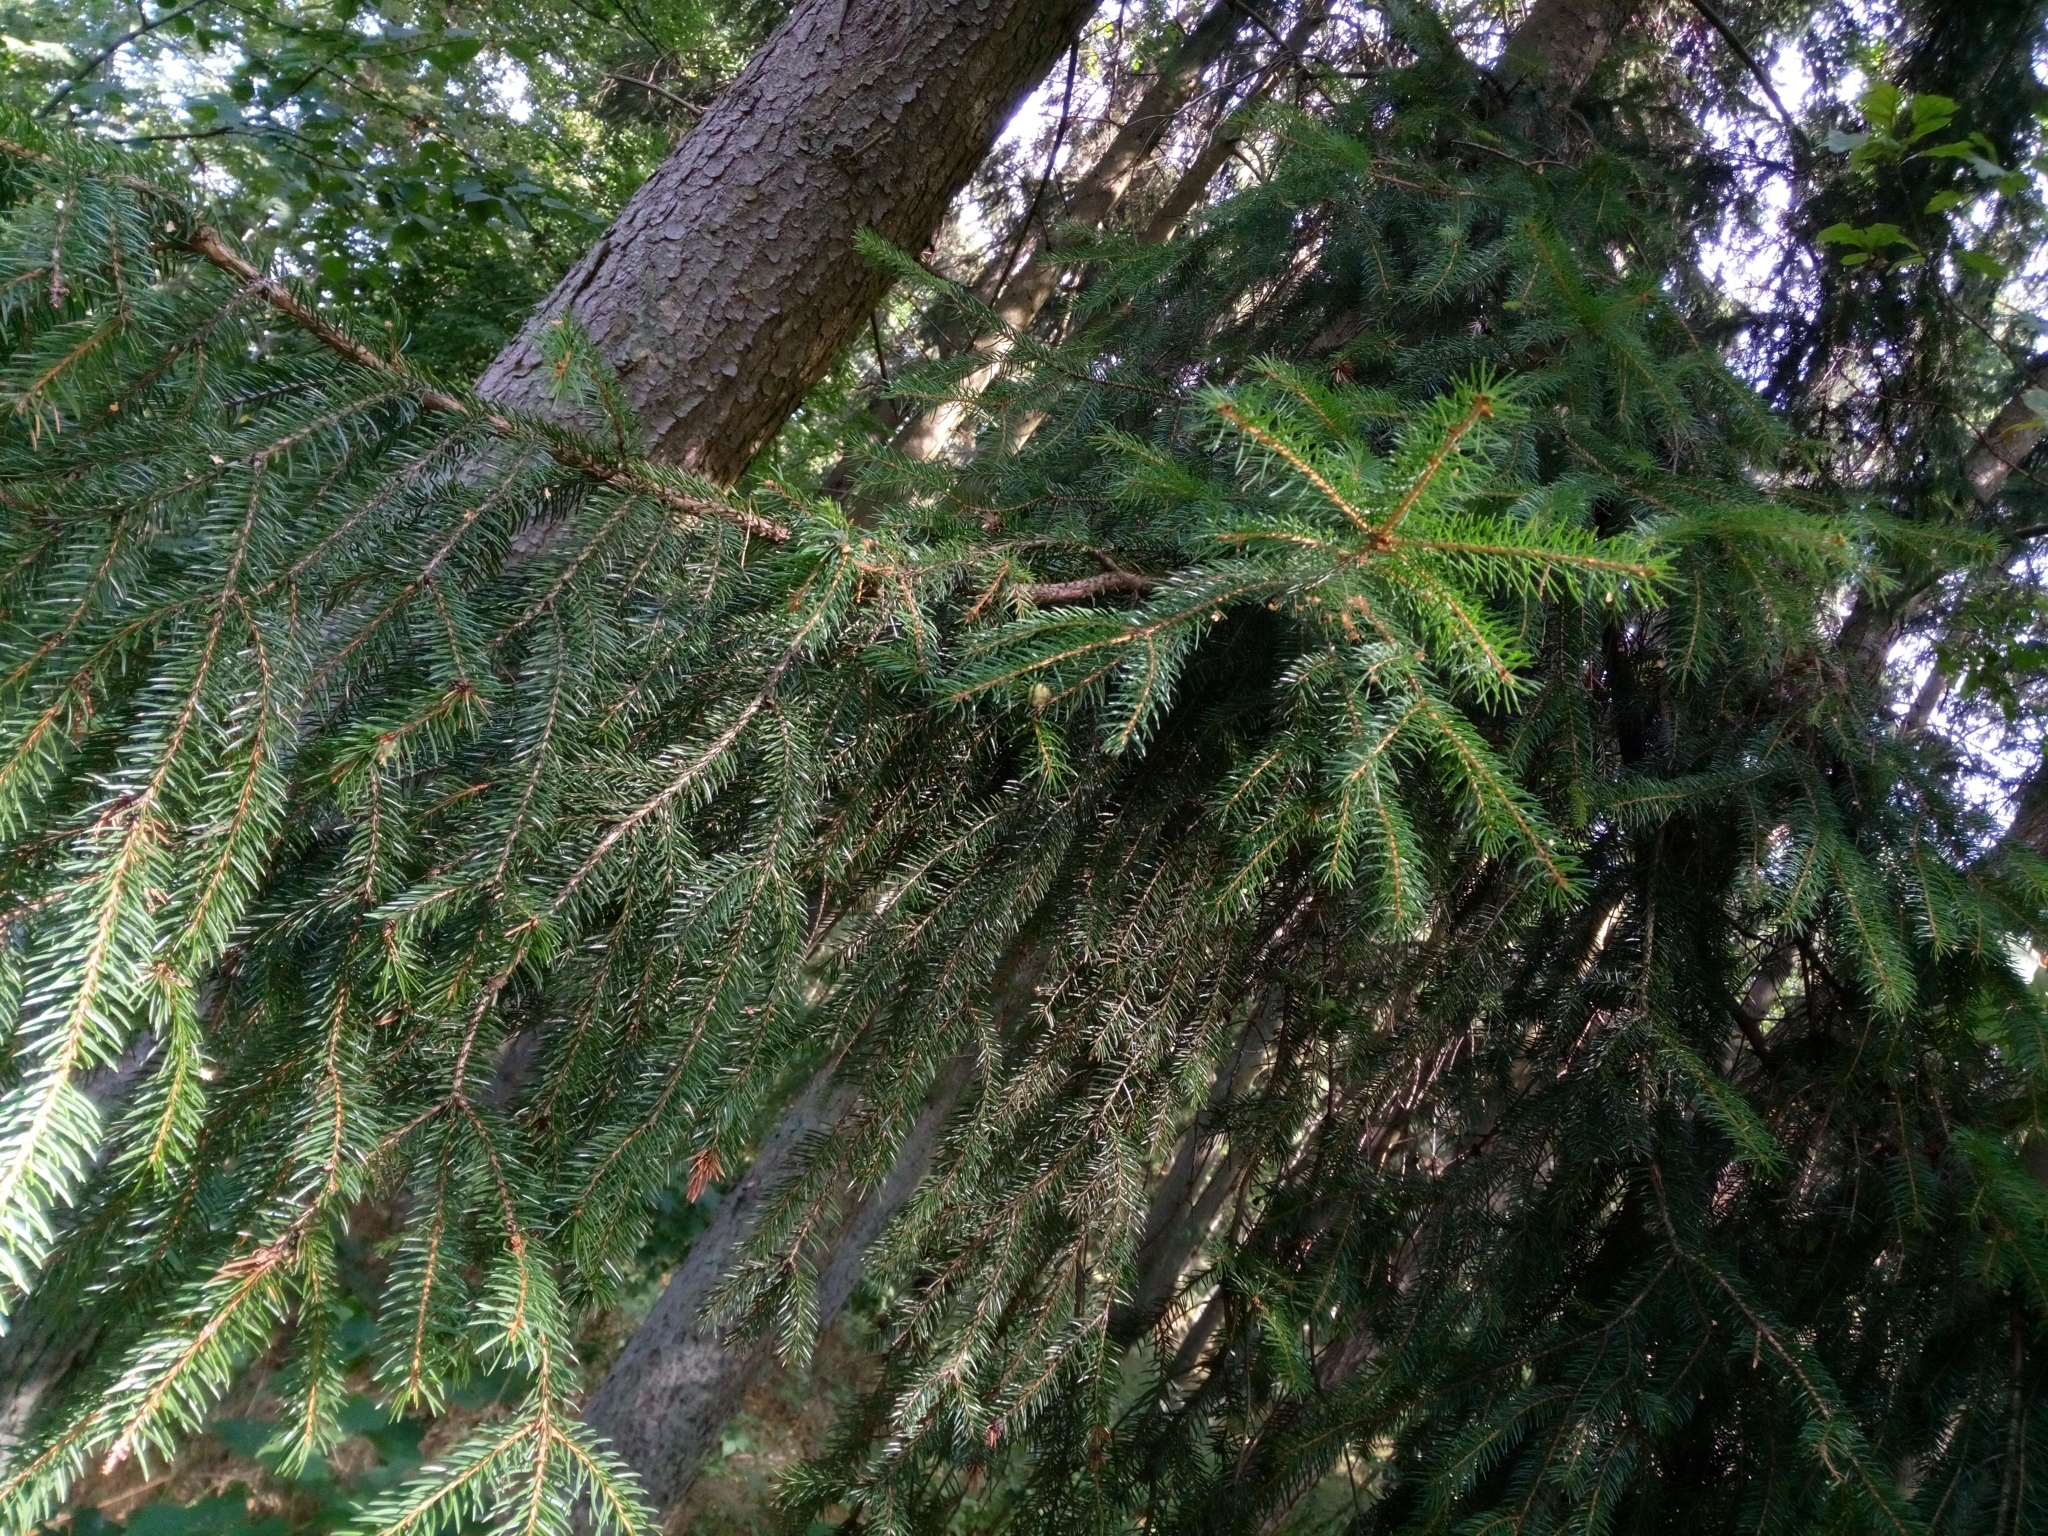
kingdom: Plantae
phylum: Tracheophyta
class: Pinopsida
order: Pinales
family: Pinaceae
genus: Picea
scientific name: Picea abies
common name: Norway spruce
